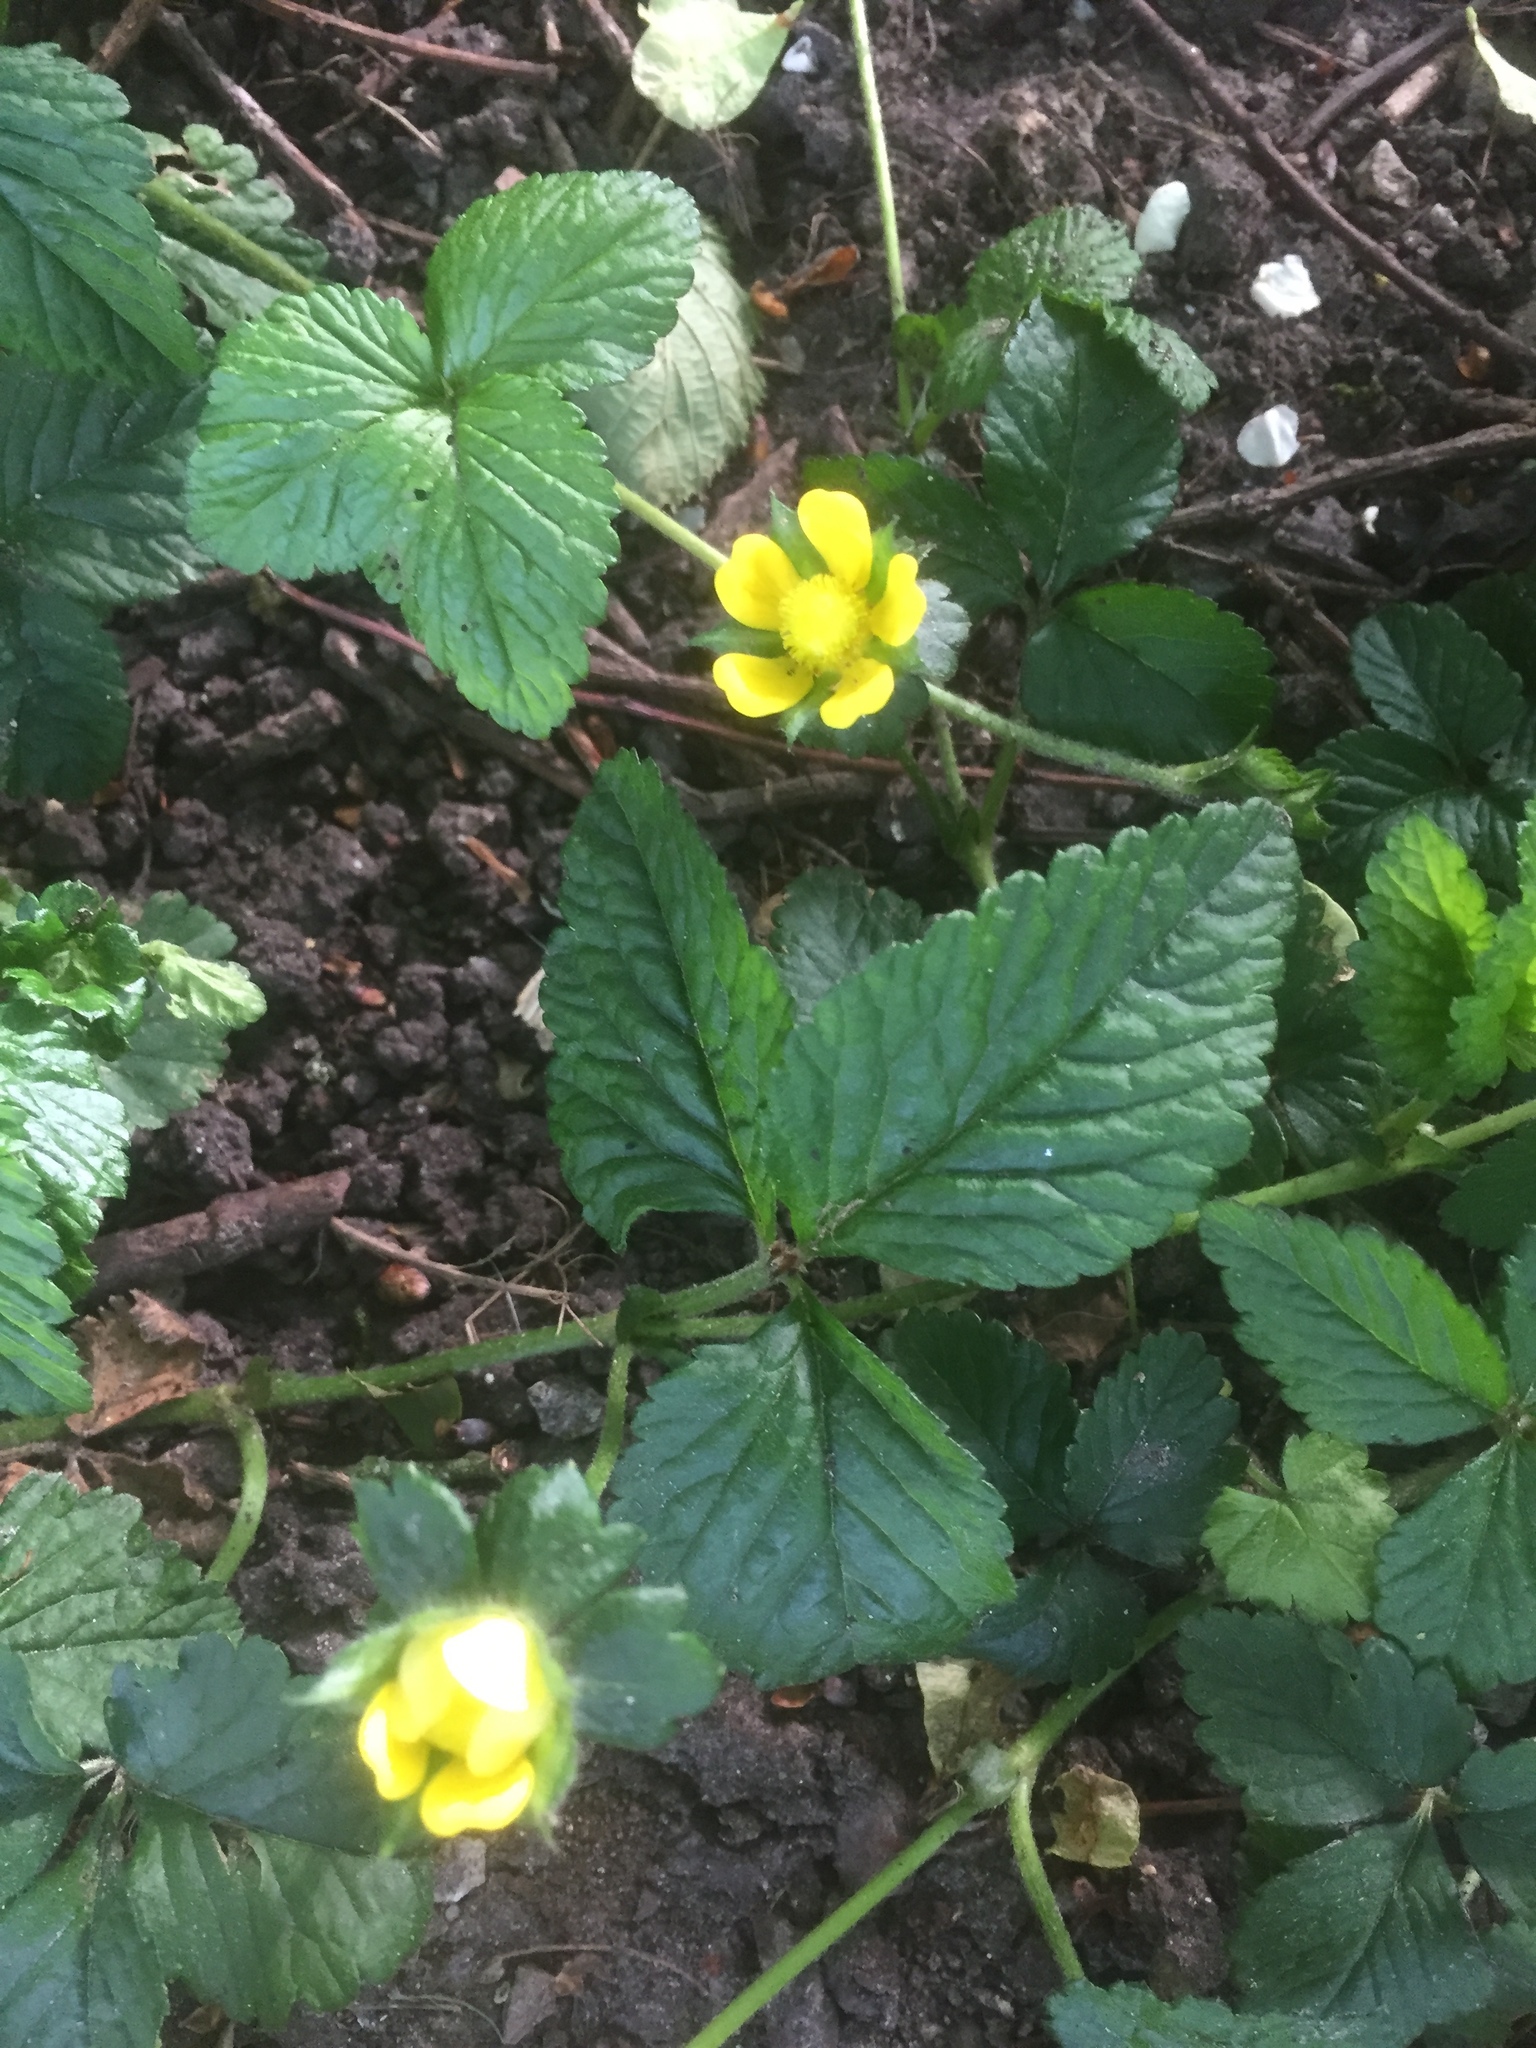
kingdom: Plantae
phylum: Tracheophyta
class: Magnoliopsida
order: Rosales
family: Rosaceae
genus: Potentilla
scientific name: Potentilla indica
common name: Yellow-flowered strawberry
